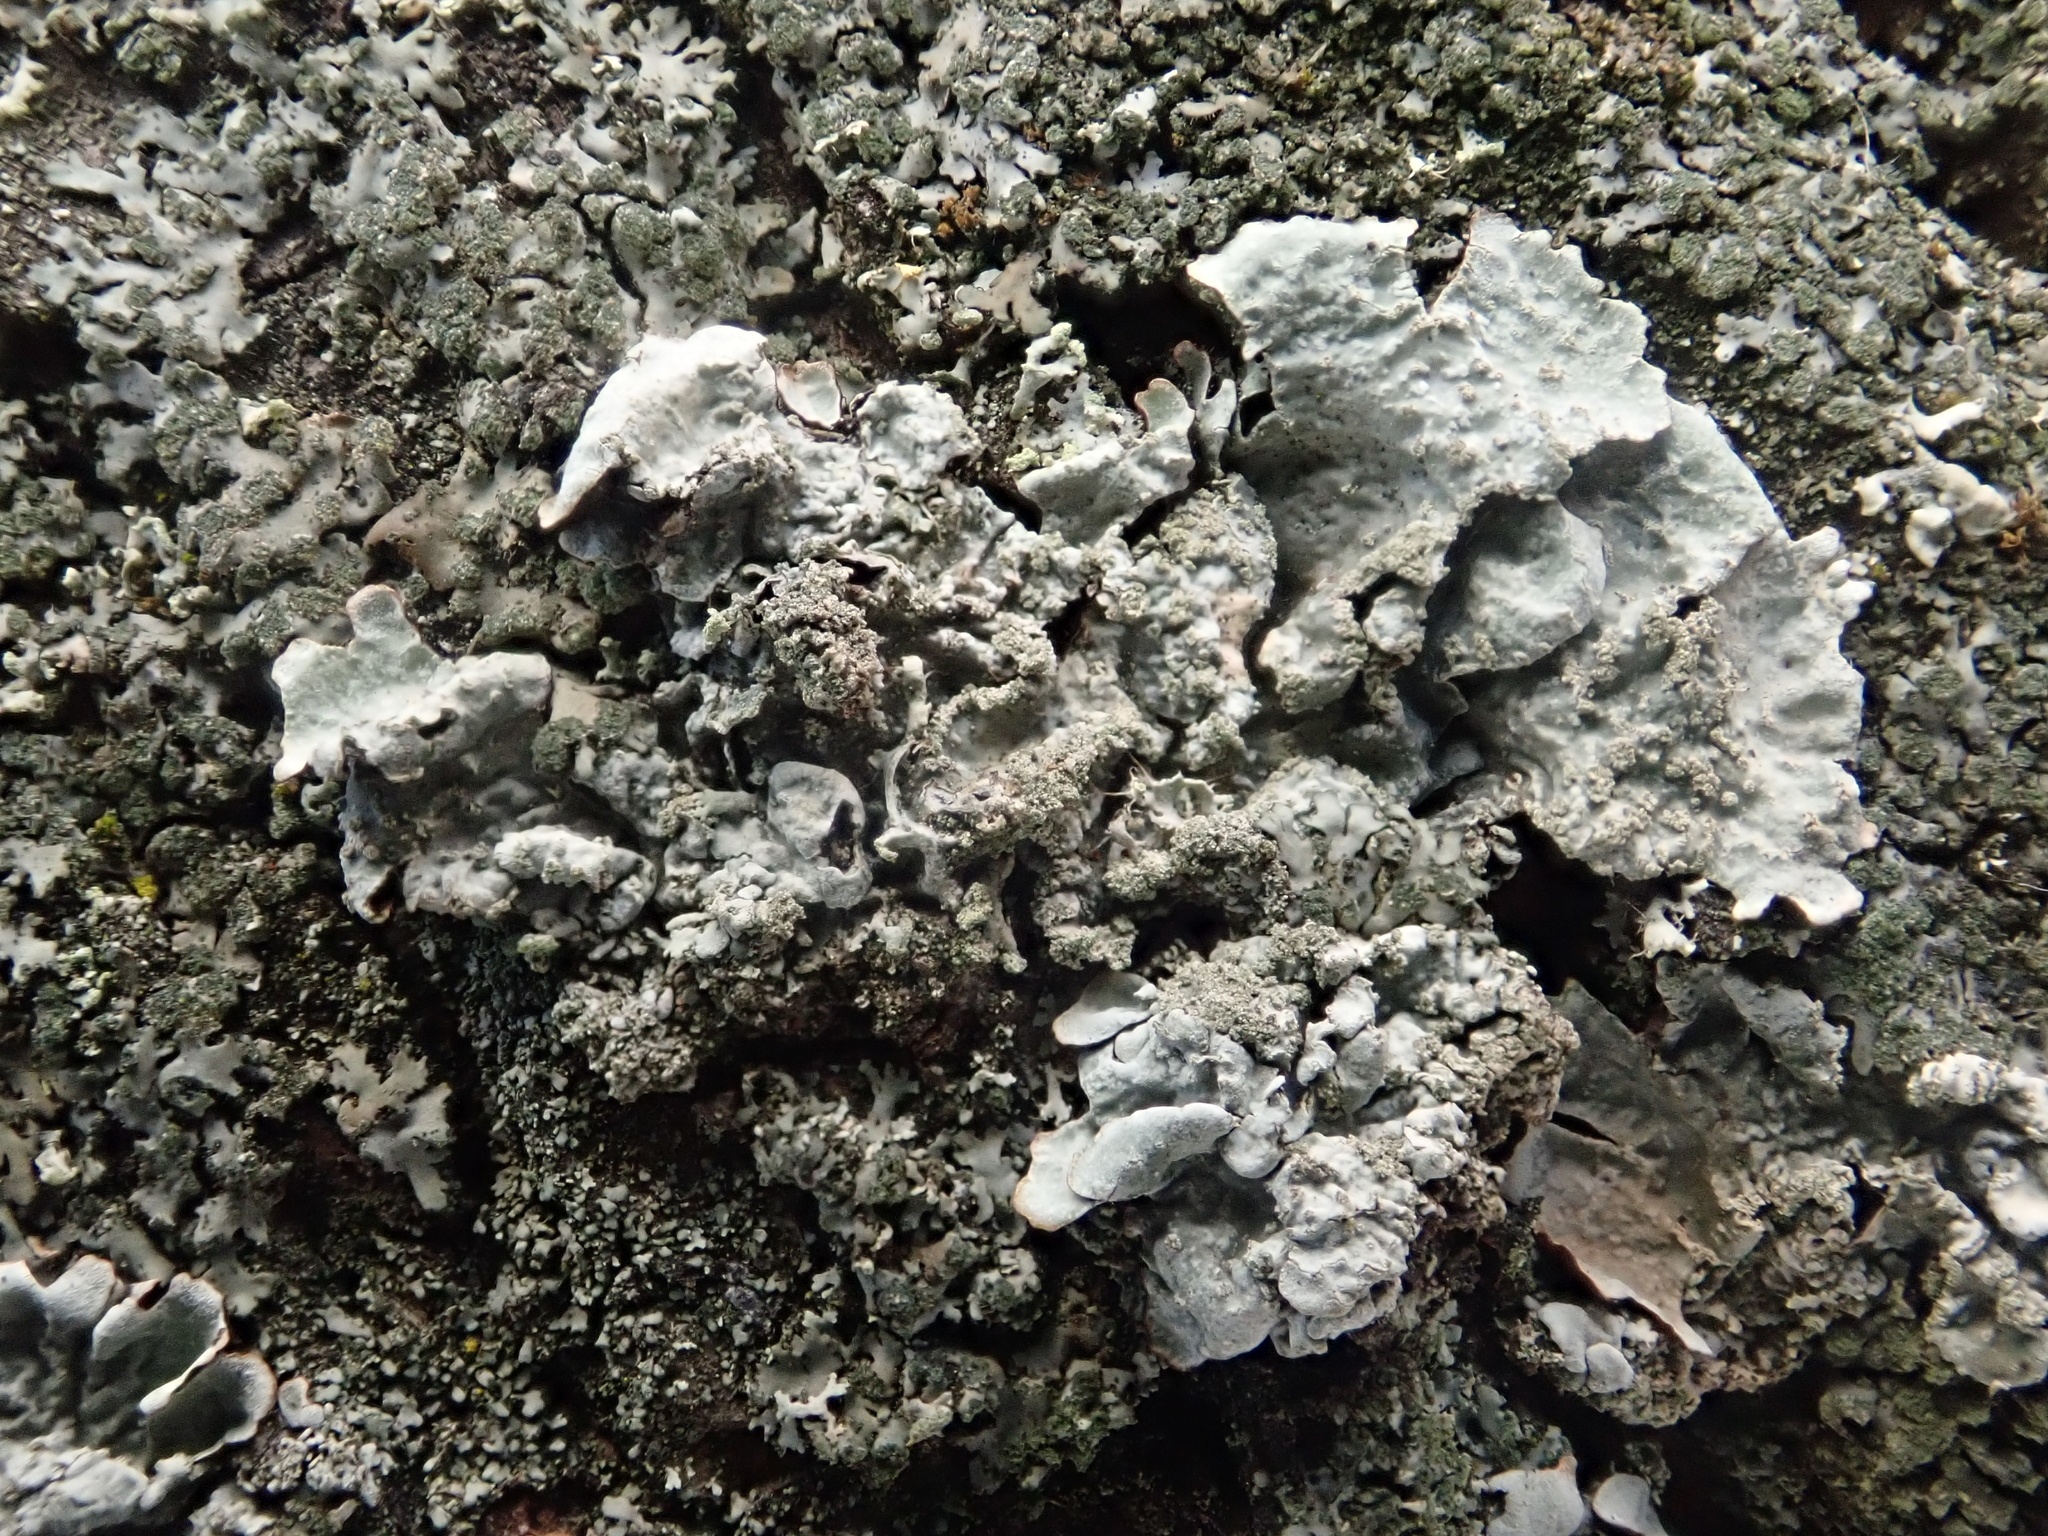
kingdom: Fungi
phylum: Ascomycota
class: Lecanoromycetes
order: Lecanorales
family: Parmeliaceae
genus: Parmelia
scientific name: Parmelia sulcata
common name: Netted shield lichen
